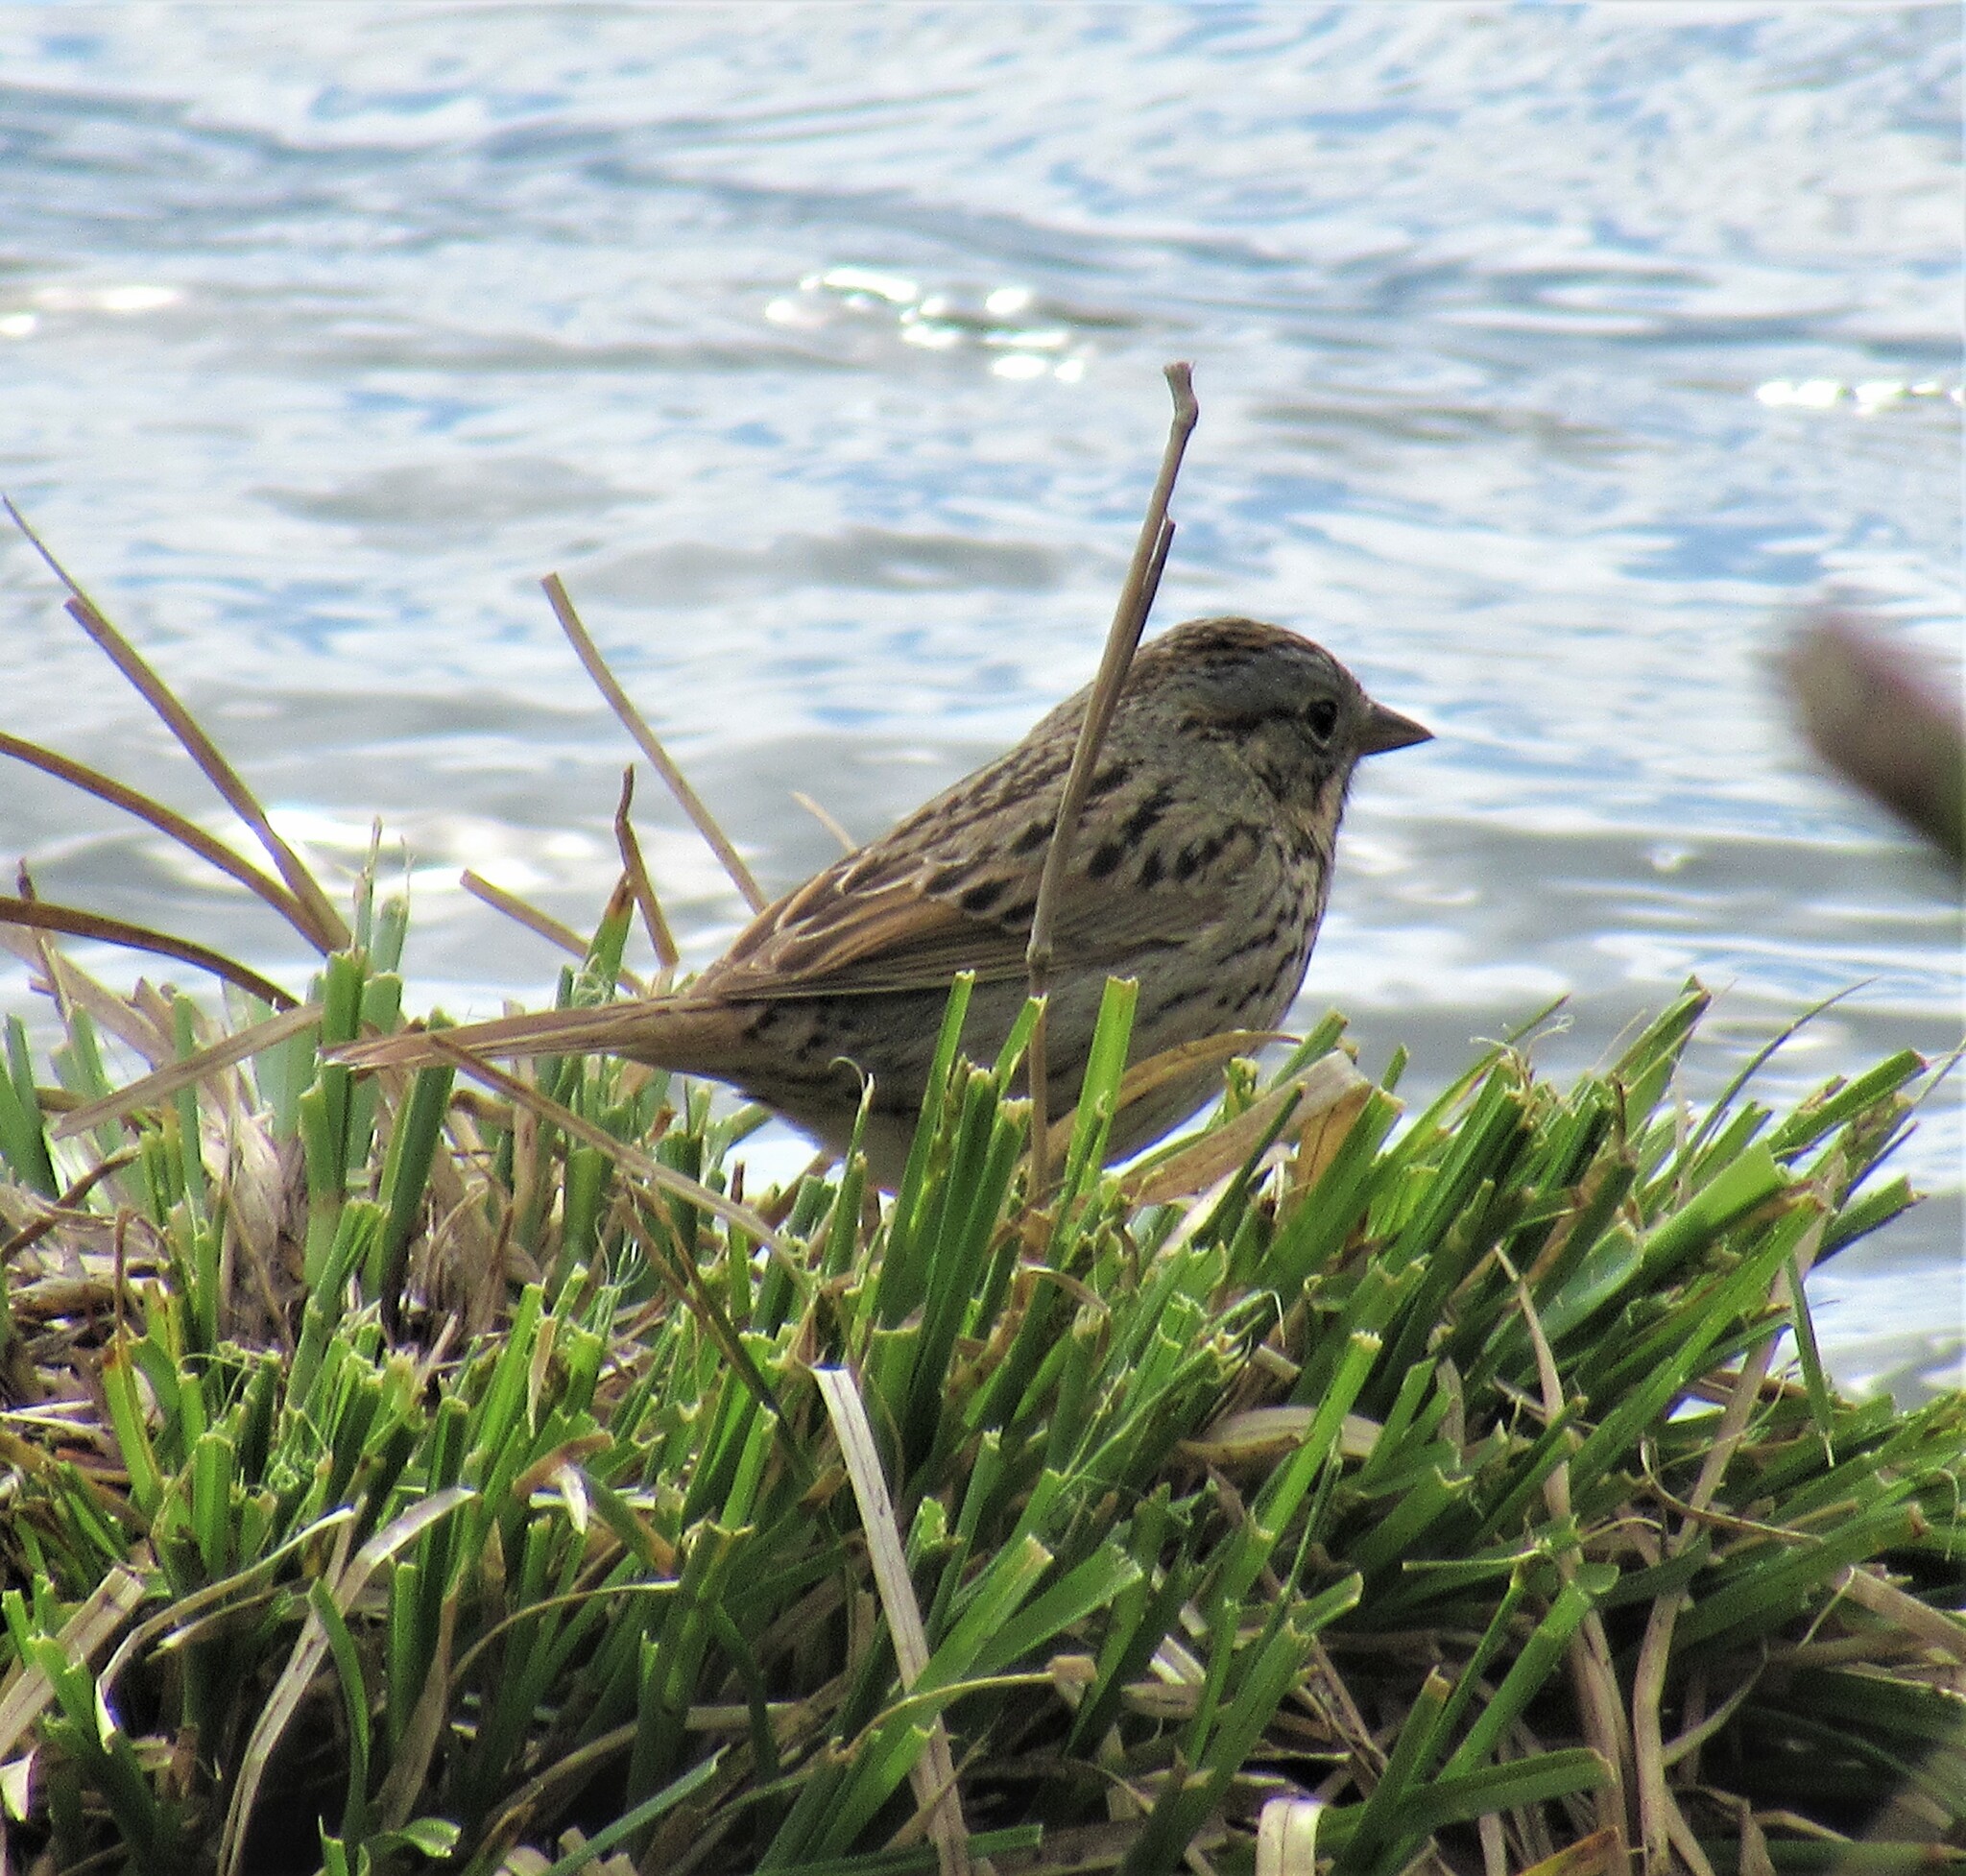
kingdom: Animalia
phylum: Chordata
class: Aves
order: Passeriformes
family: Passerellidae
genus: Melospiza
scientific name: Melospiza lincolnii
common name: Lincoln's sparrow
